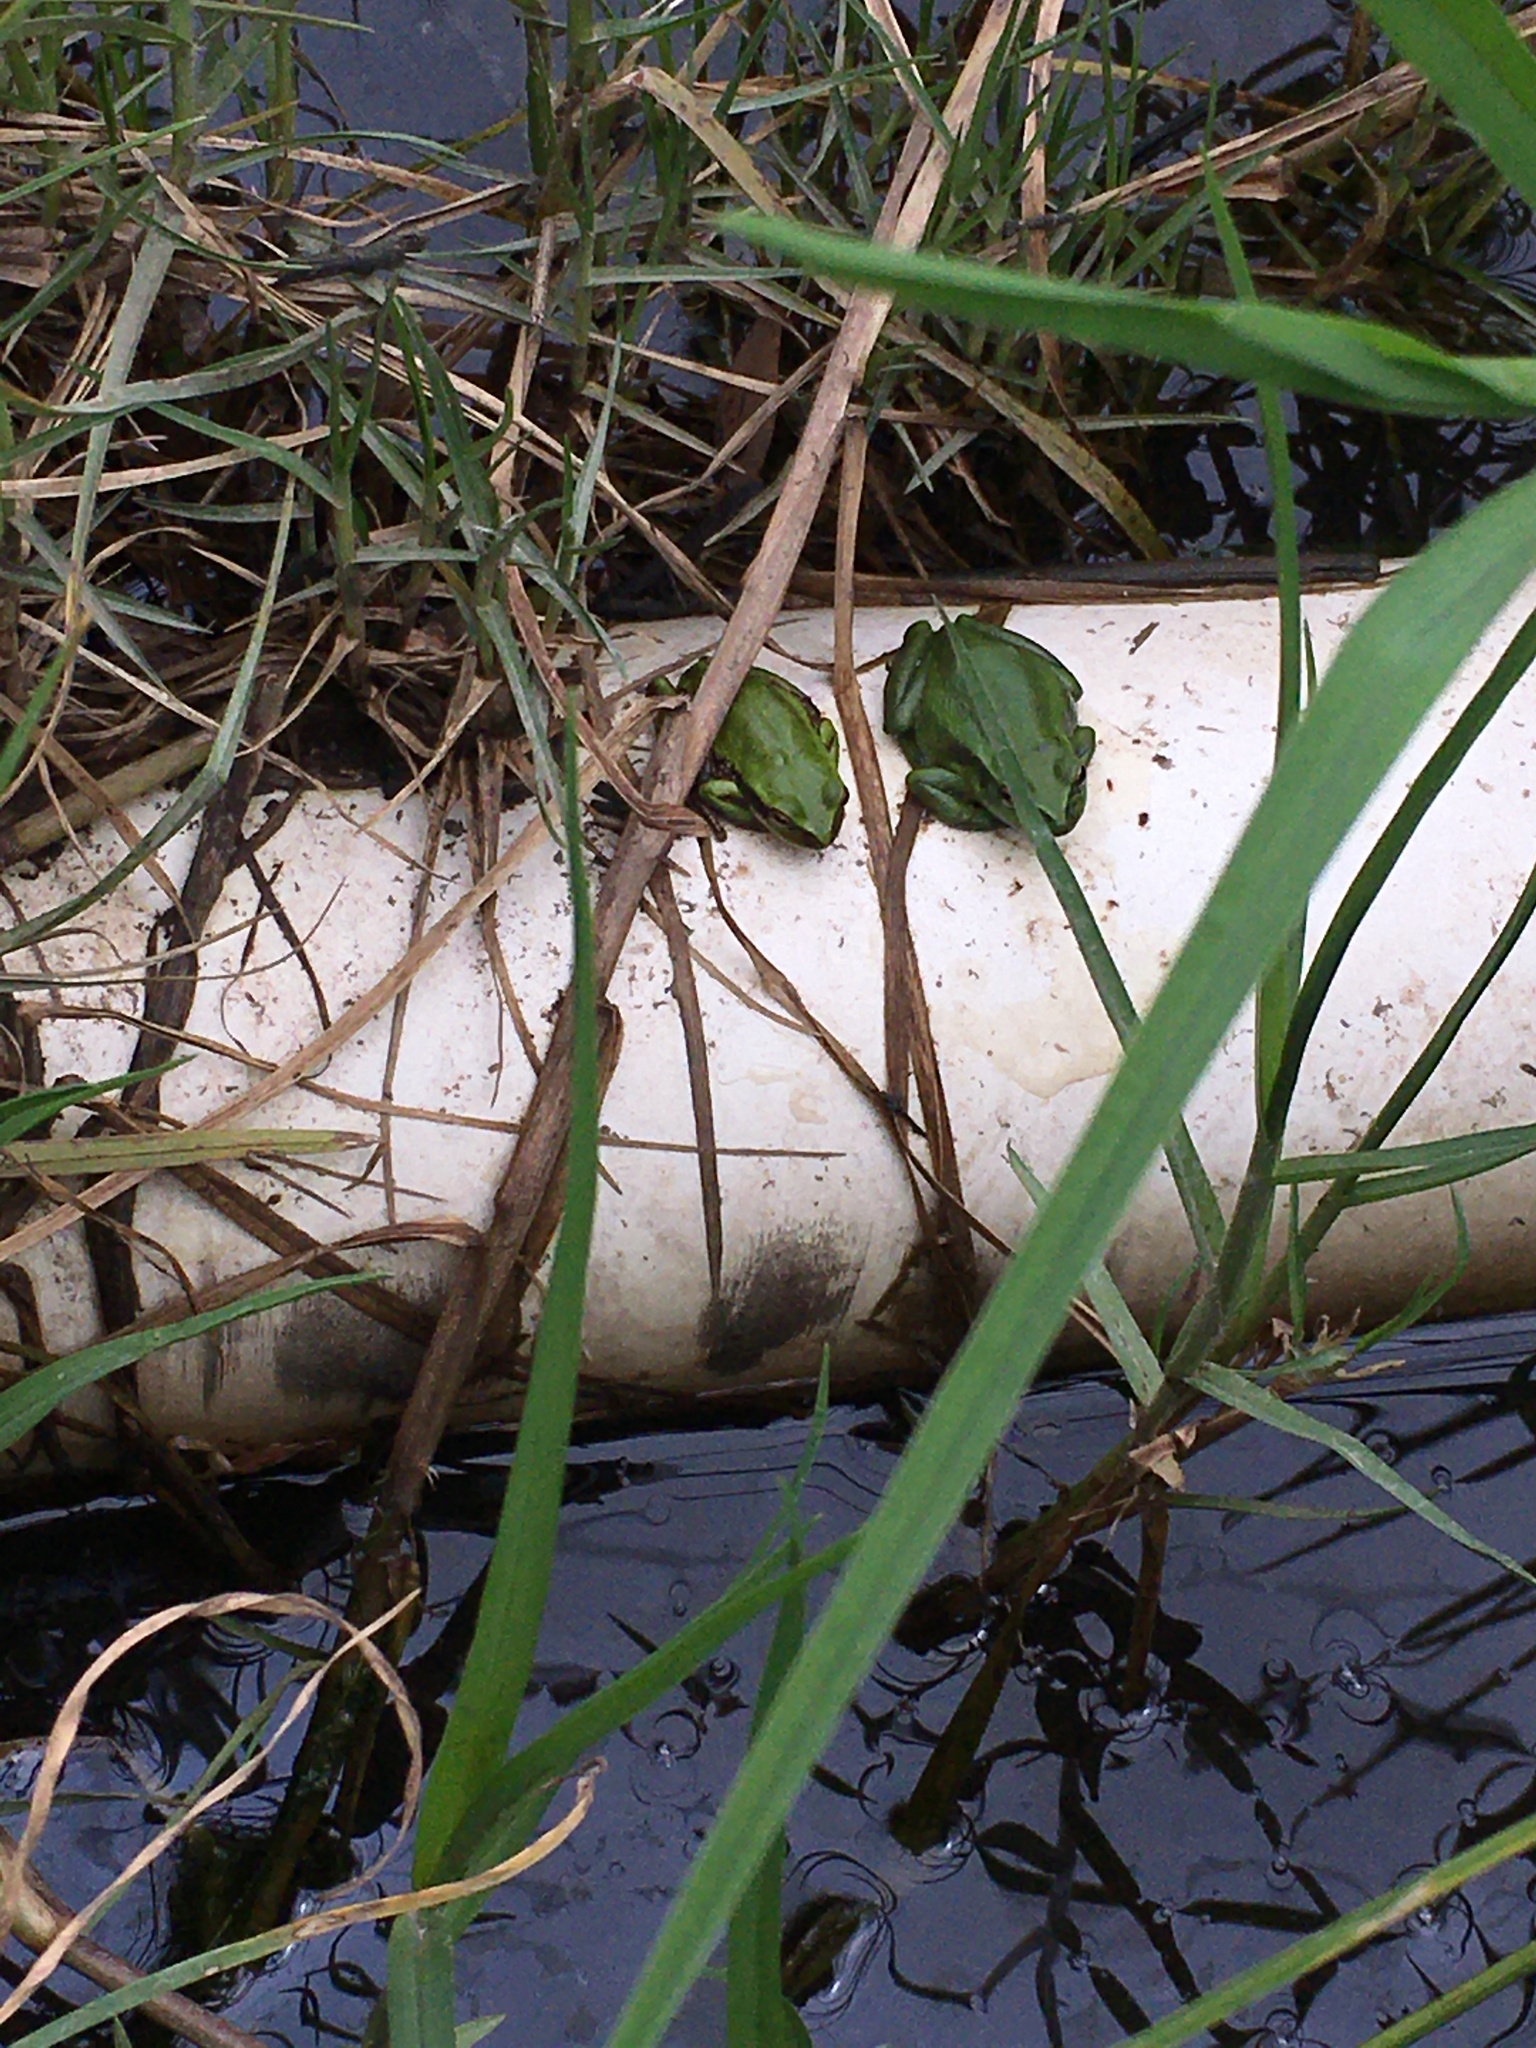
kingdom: Animalia
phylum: Chordata
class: Amphibia
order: Anura
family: Hylidae
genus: Dendropsophus
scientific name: Dendropsophus molitor
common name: Green dotted treefrog
